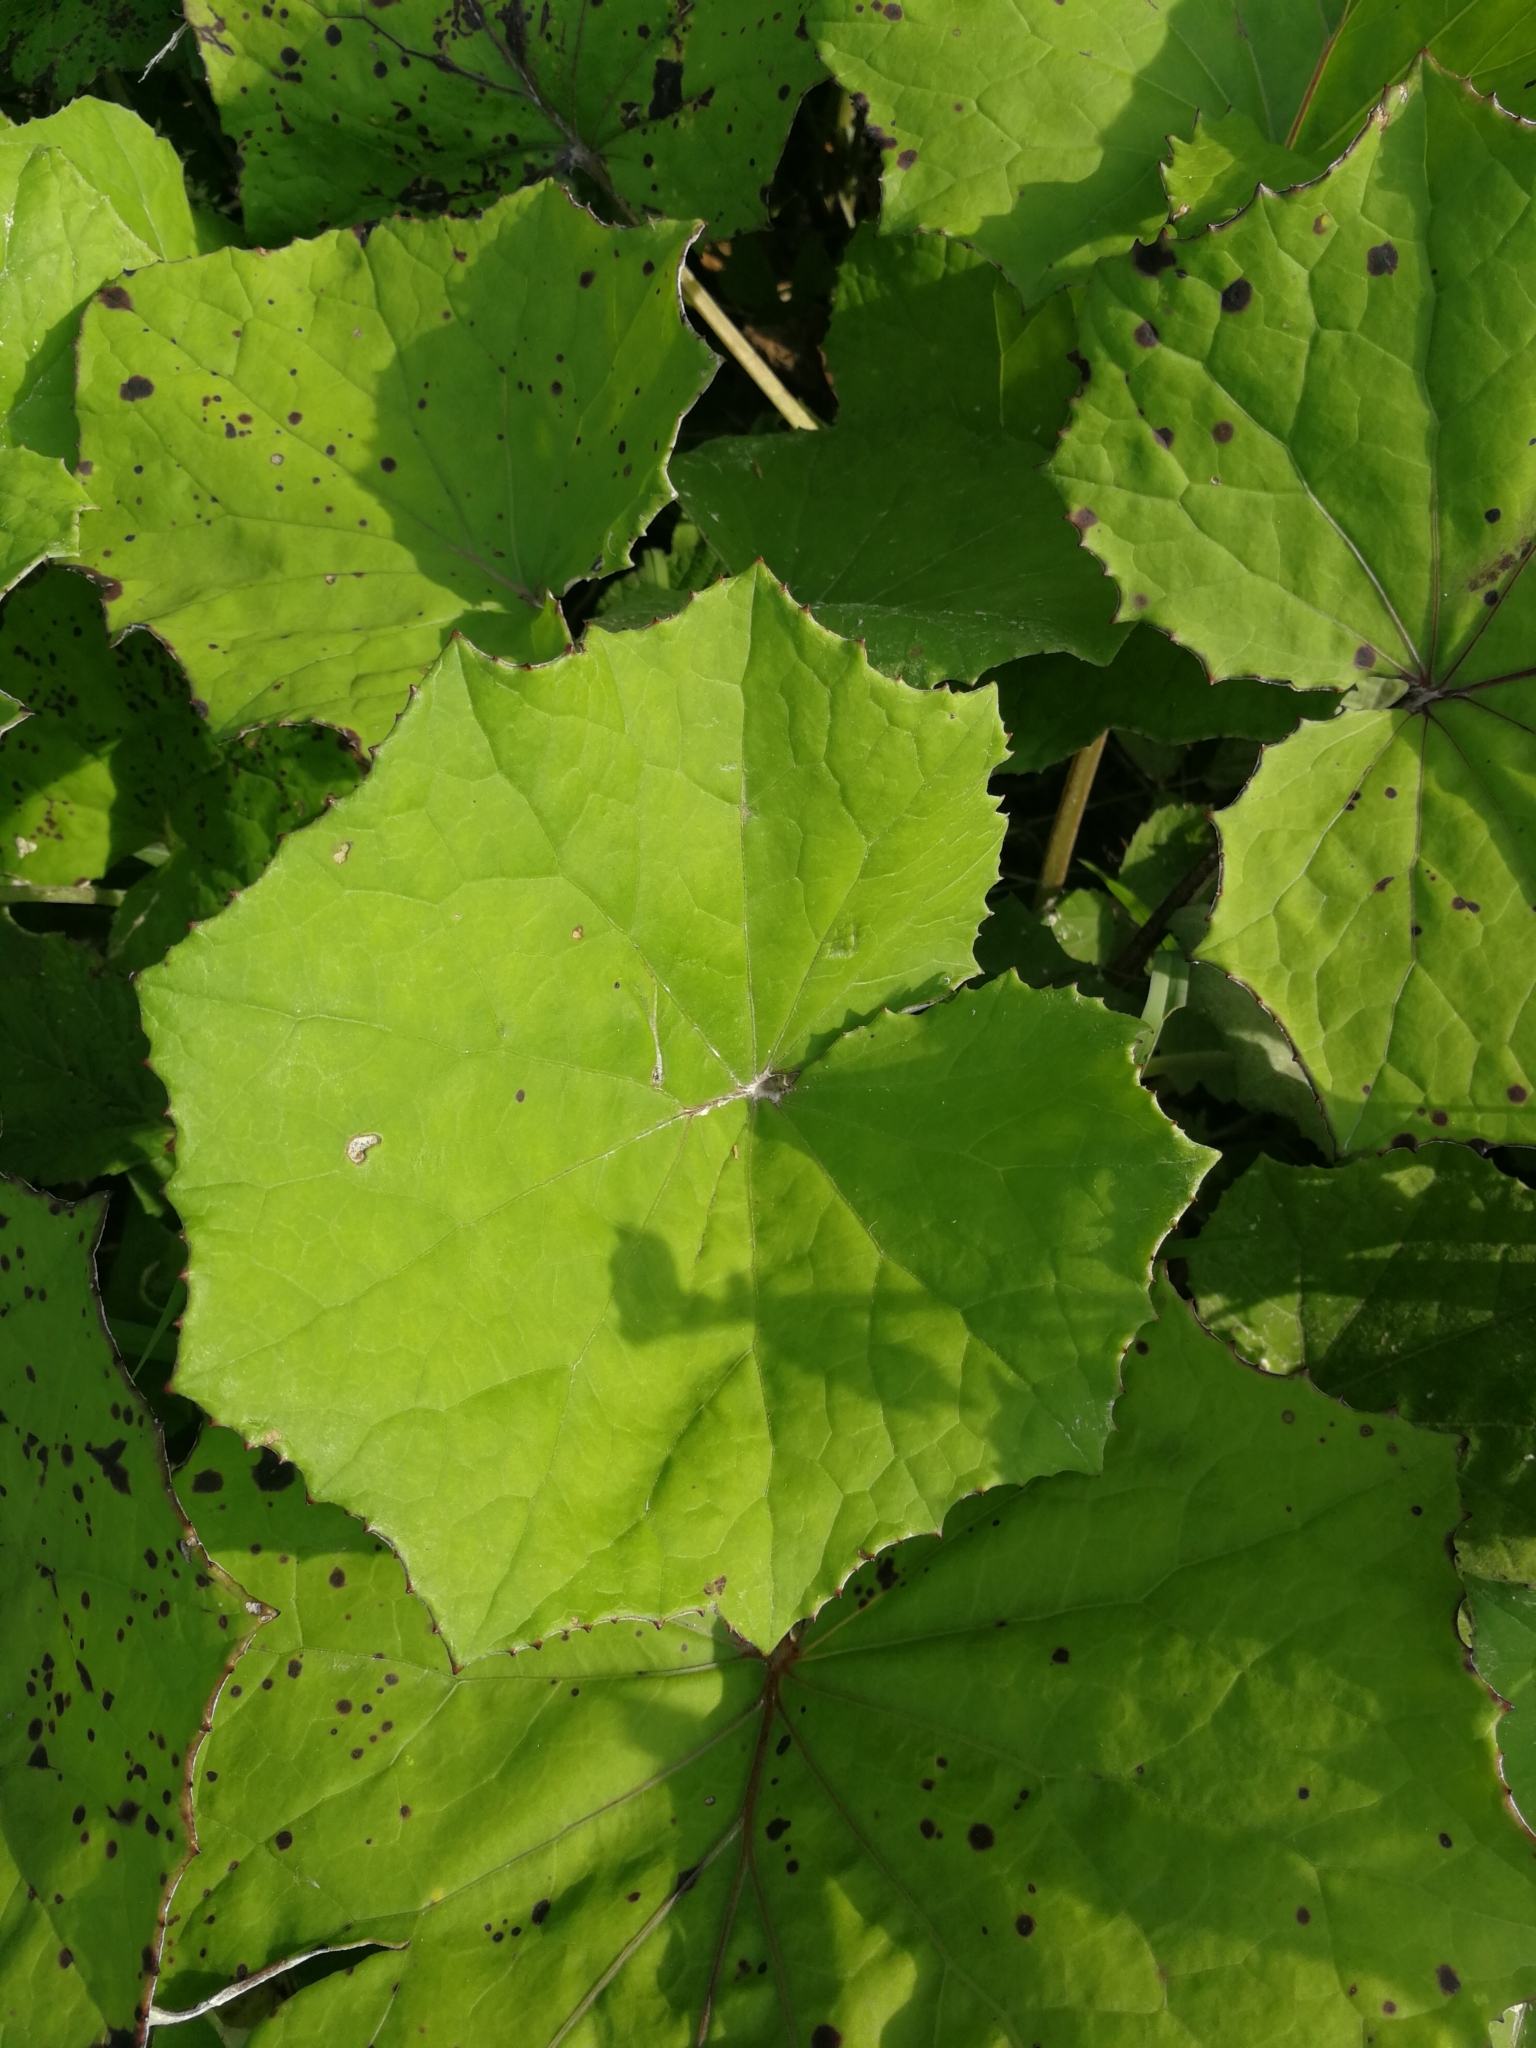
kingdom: Plantae
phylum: Tracheophyta
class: Magnoliopsida
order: Asterales
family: Asteraceae
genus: Tussilago
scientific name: Tussilago farfara
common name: Coltsfoot
